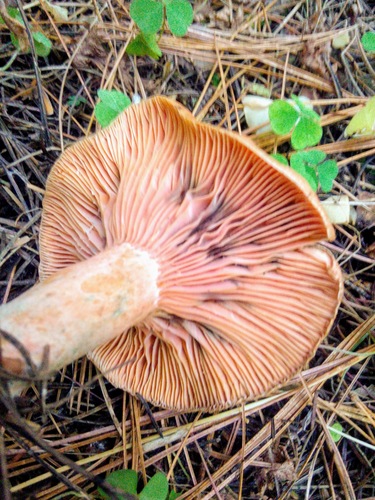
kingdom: Fungi
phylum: Basidiomycota
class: Agaricomycetes
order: Russulales
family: Russulaceae
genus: Lactarius
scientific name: Lactarius deliciosus
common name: Saffron milk-cap
